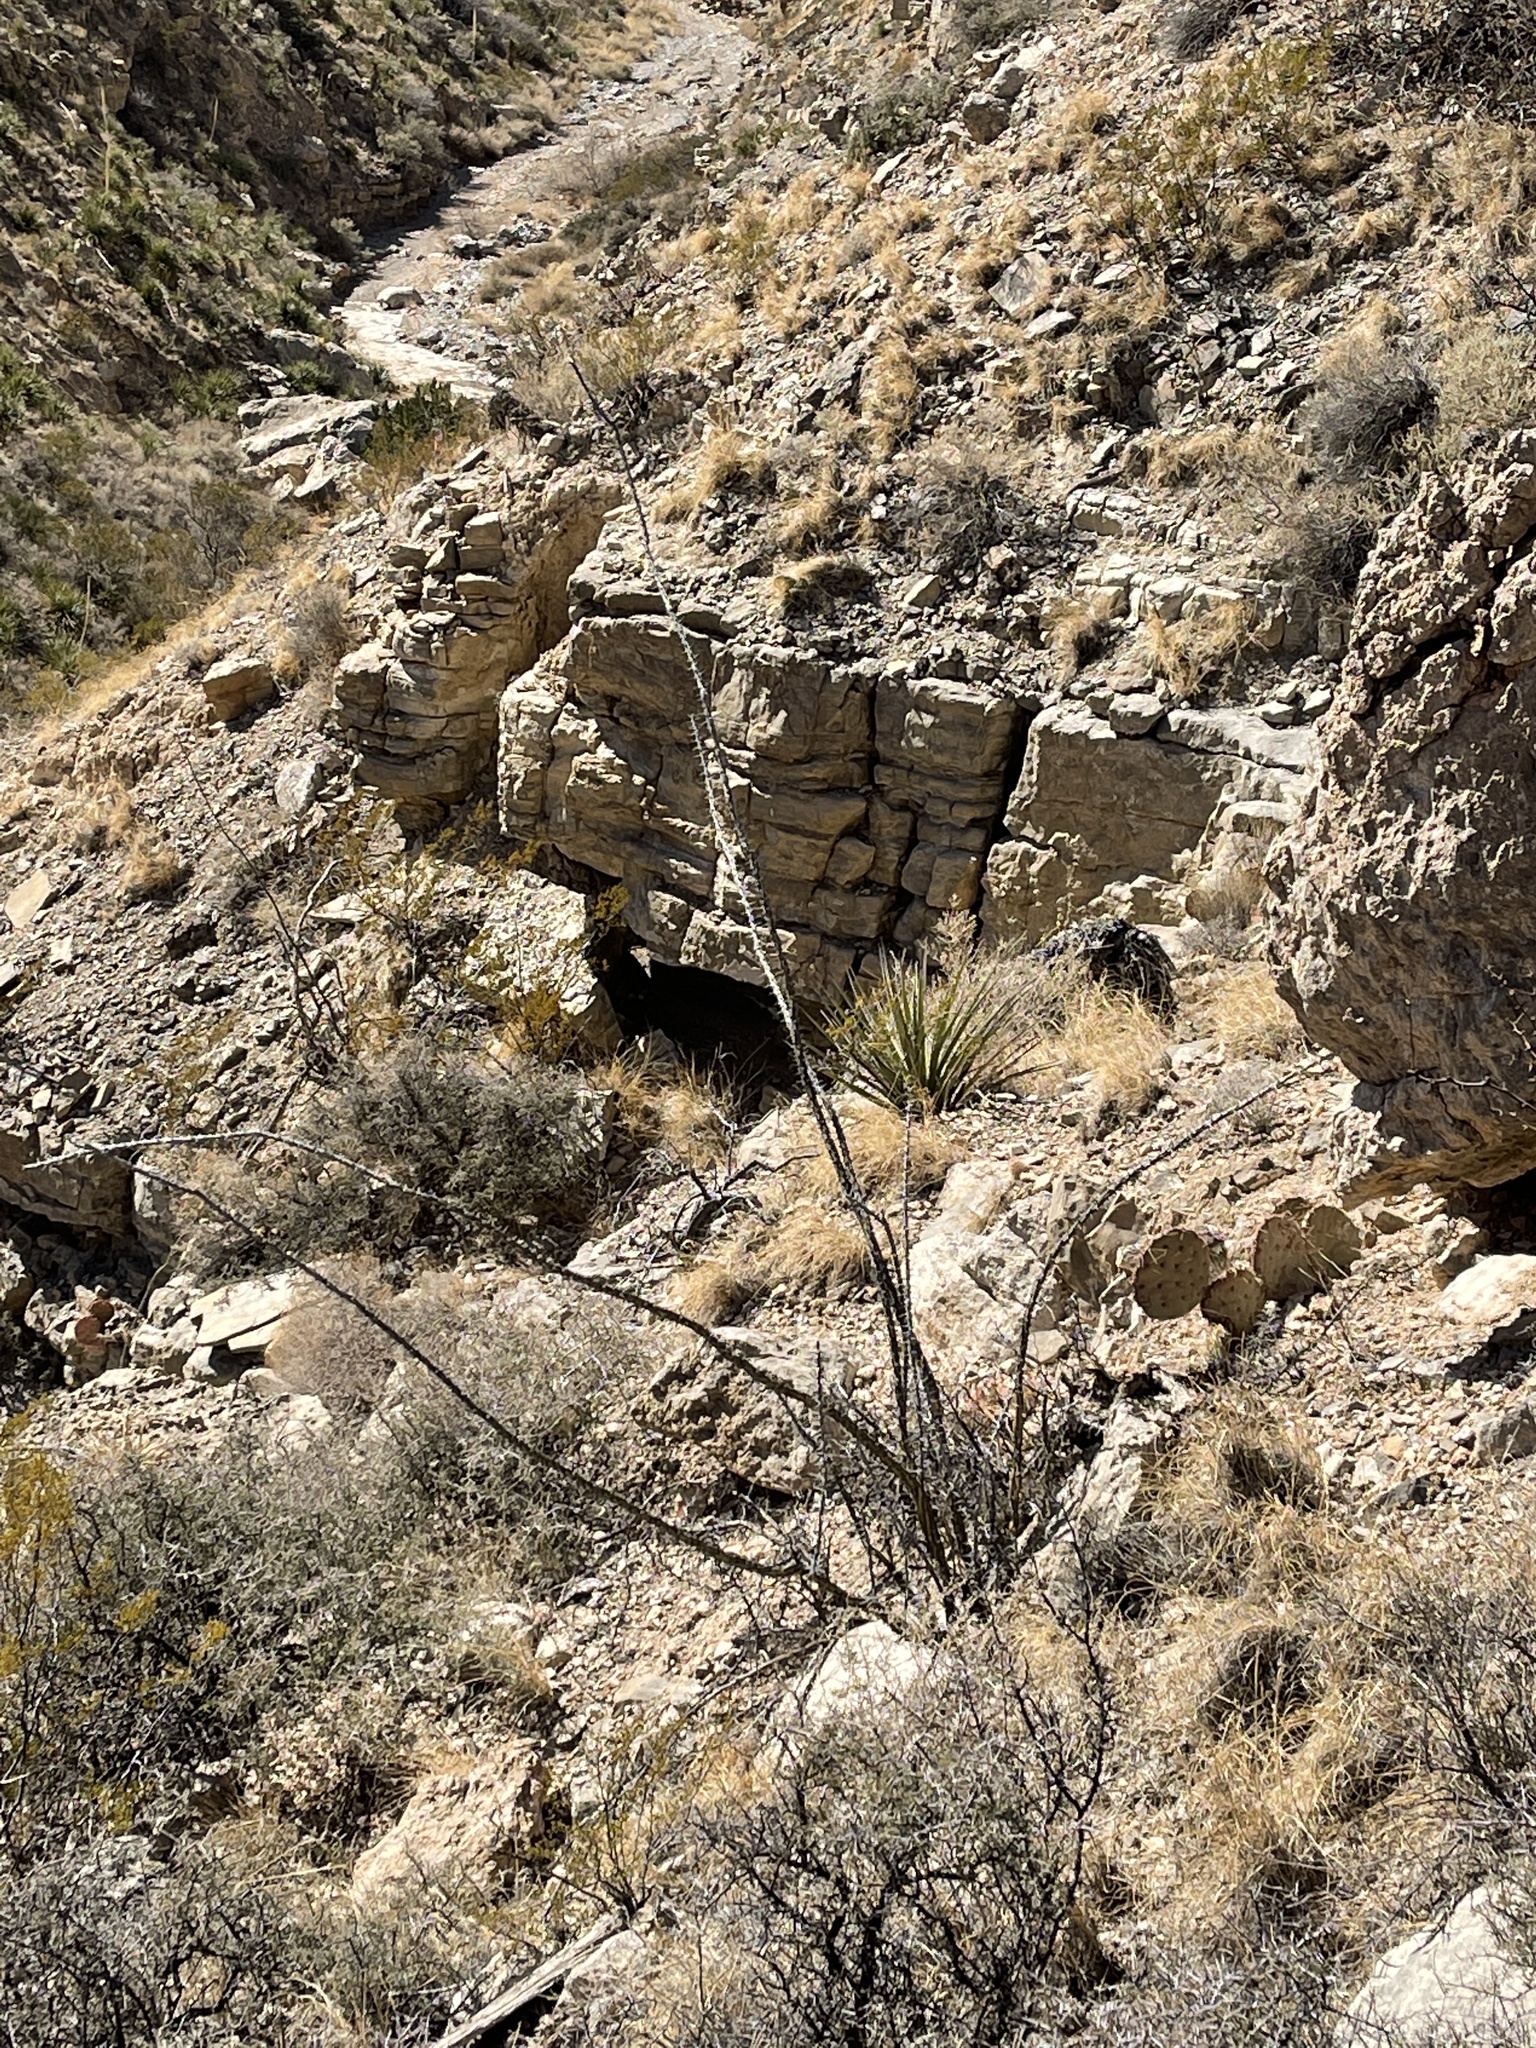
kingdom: Plantae
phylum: Tracheophyta
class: Magnoliopsida
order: Ericales
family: Fouquieriaceae
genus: Fouquieria
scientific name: Fouquieria splendens
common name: Vine-cactus
